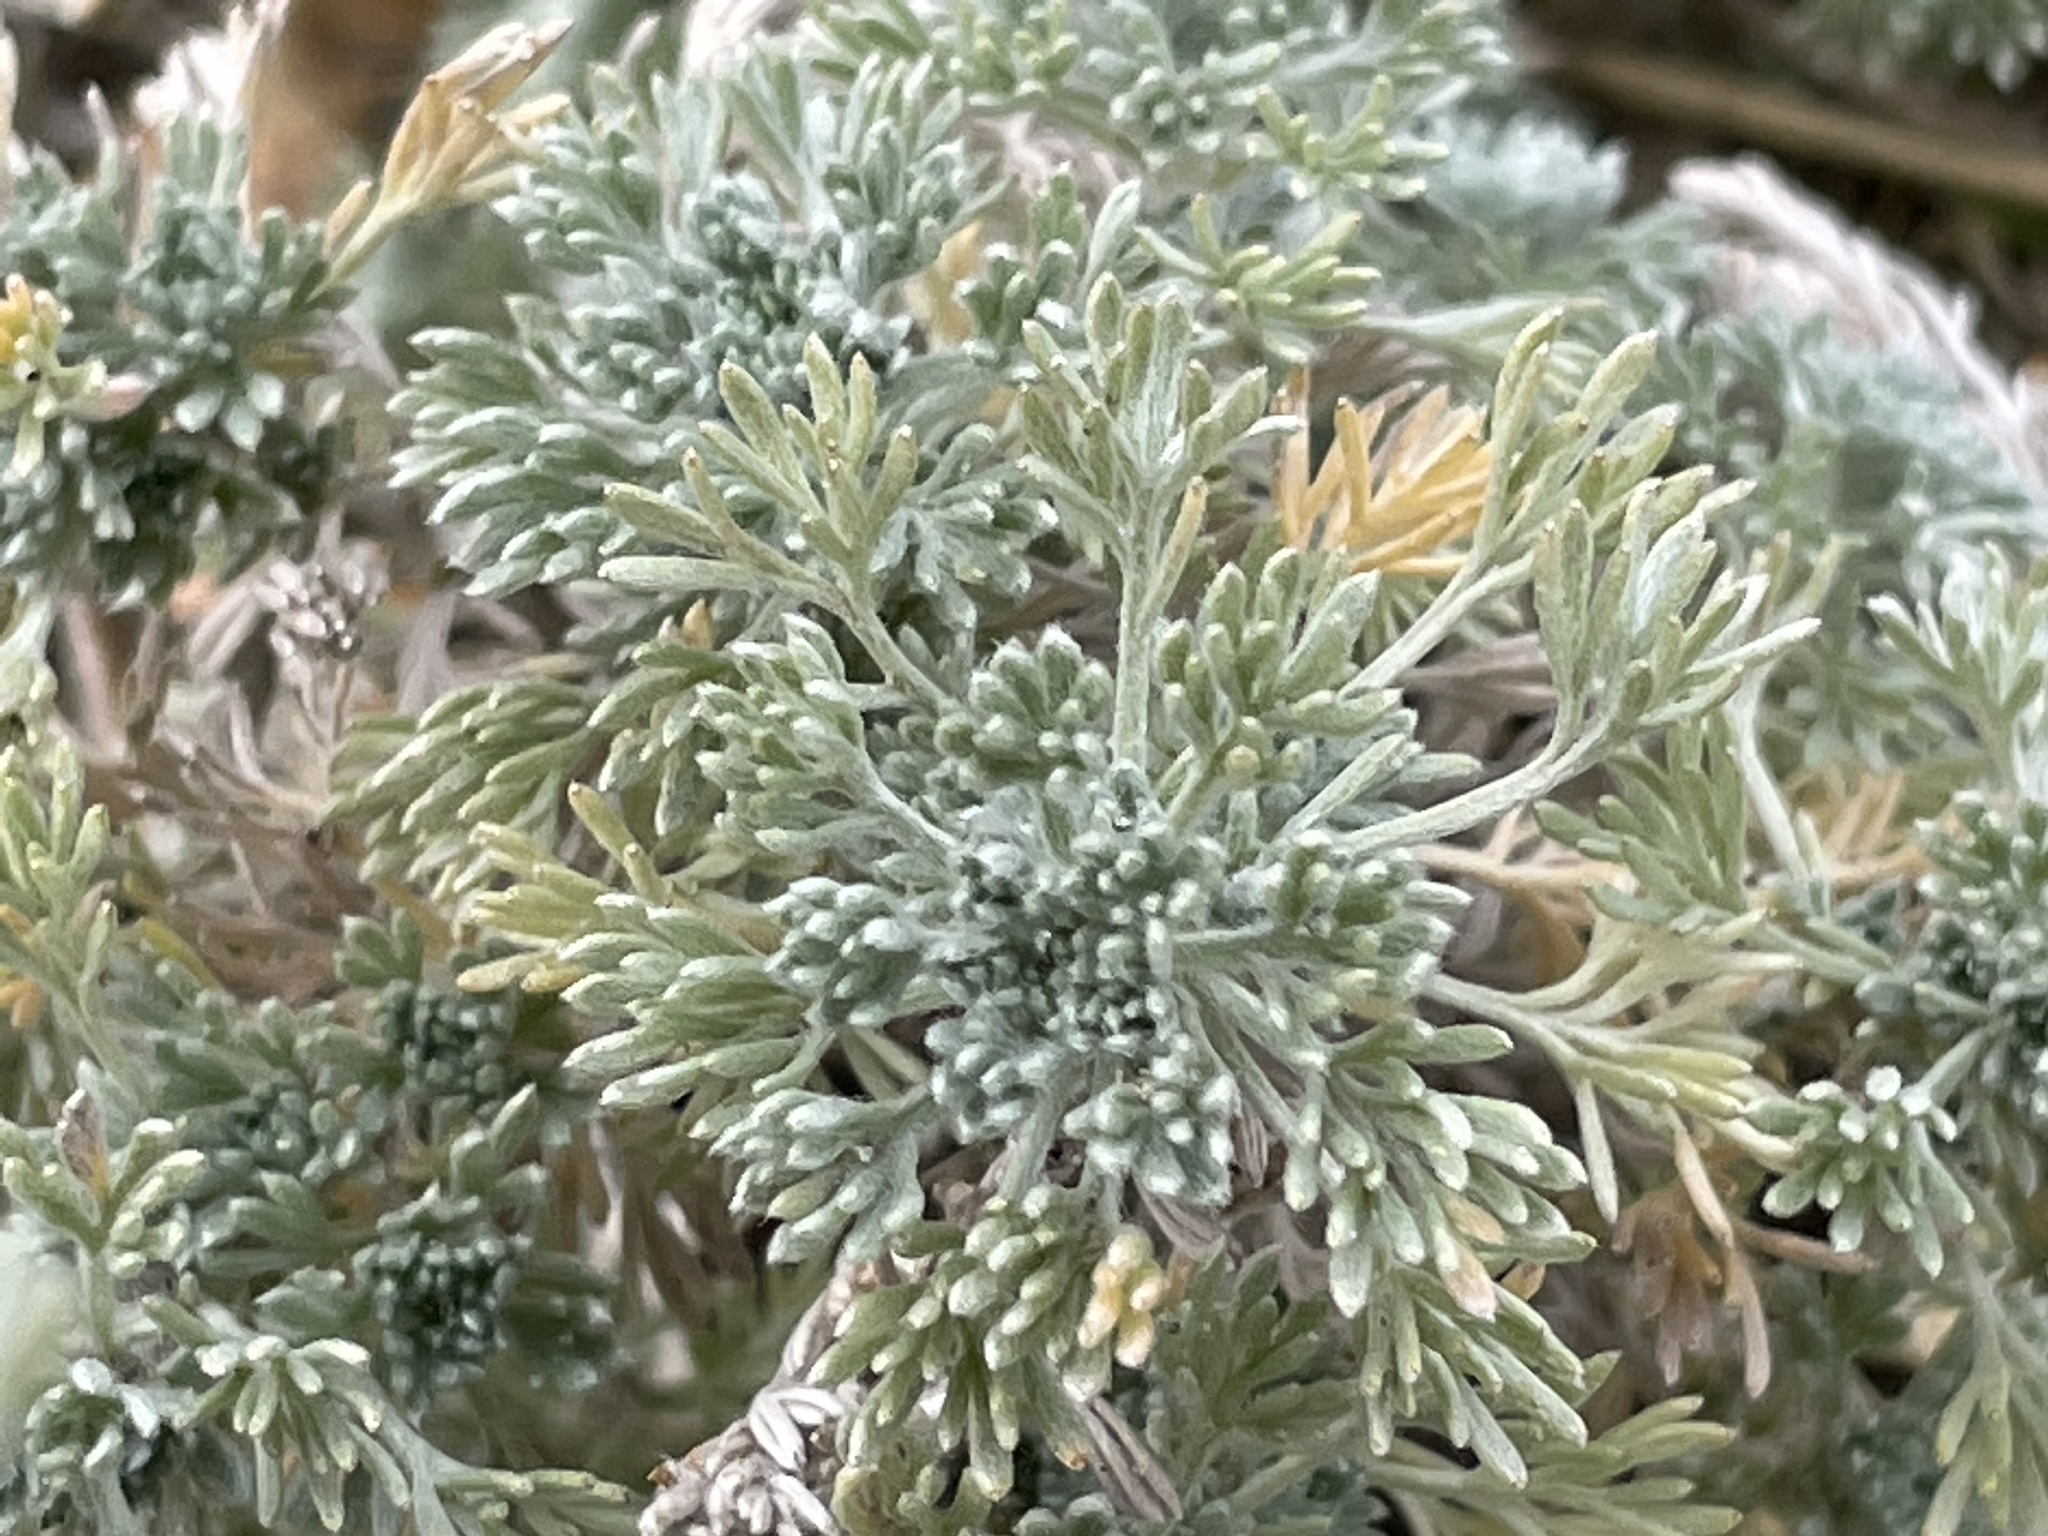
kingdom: Plantae
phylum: Tracheophyta
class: Magnoliopsida
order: Asterales
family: Asteraceae
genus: Artemisia
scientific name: Artemisia frigida
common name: Prairie sagewort
